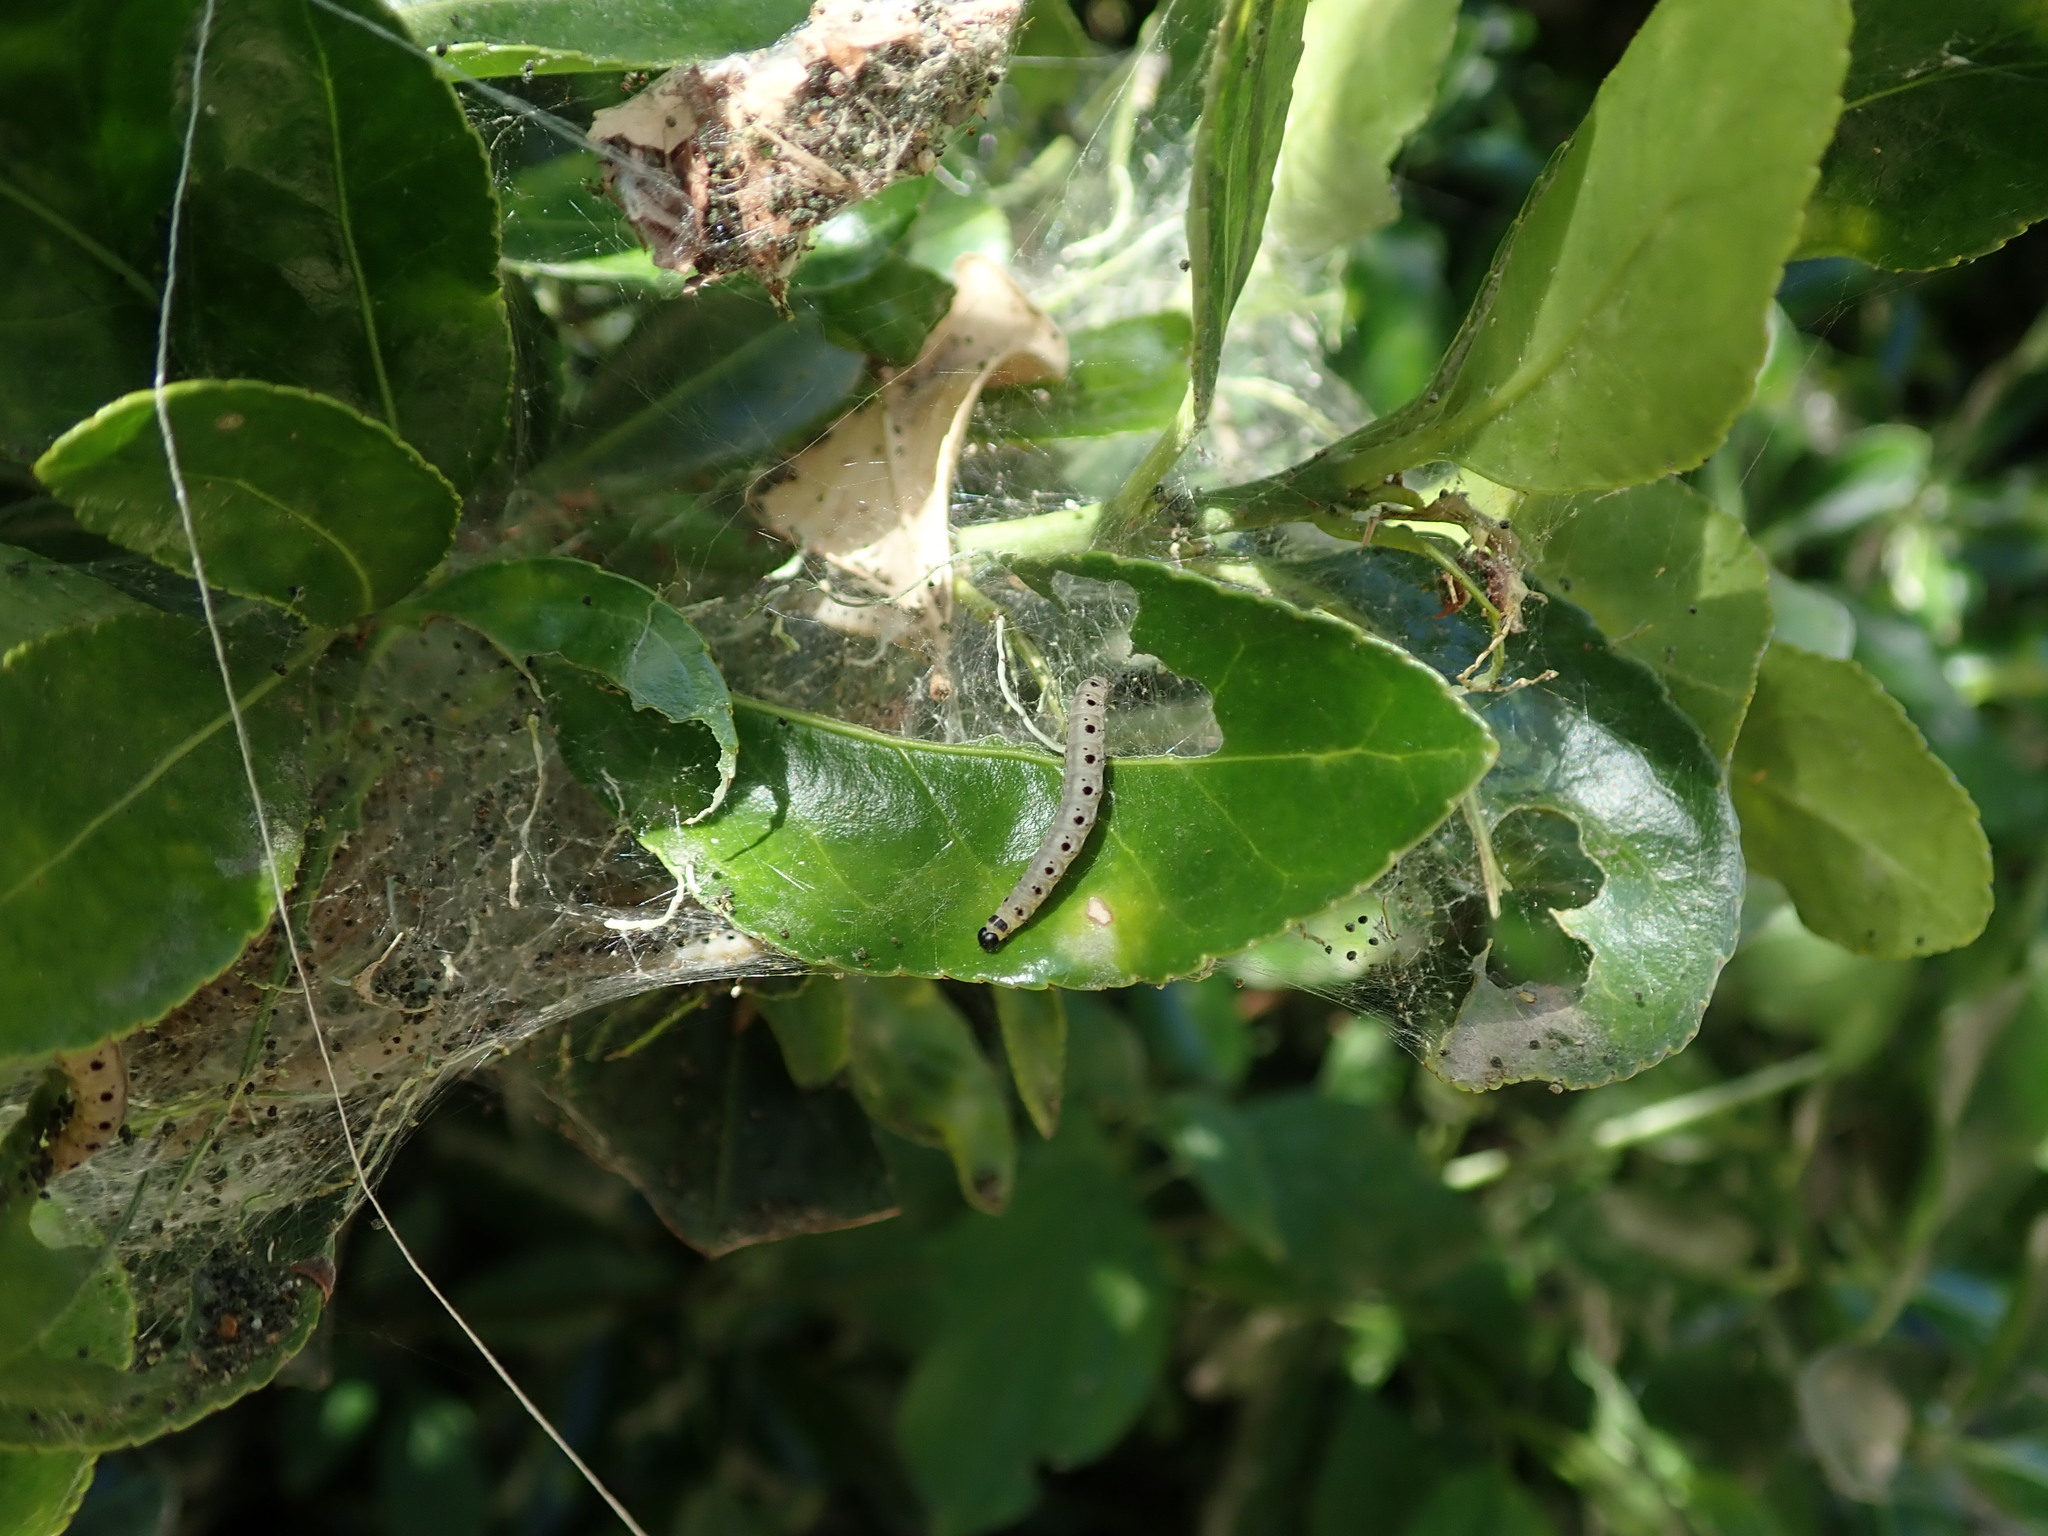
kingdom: Animalia
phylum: Arthropoda
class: Insecta
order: Lepidoptera
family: Yponomeutidae
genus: Yponomeuta
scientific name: Yponomeuta cagnagellus
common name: Spindle ermine
